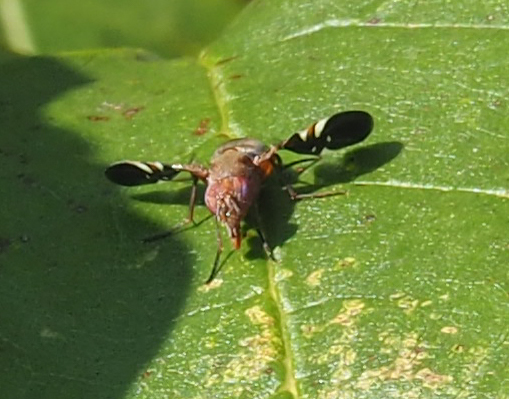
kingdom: Animalia
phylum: Arthropoda
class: Insecta
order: Diptera
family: Ulidiidae
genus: Delphinia
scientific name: Delphinia picta
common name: Common picture-winged fly
